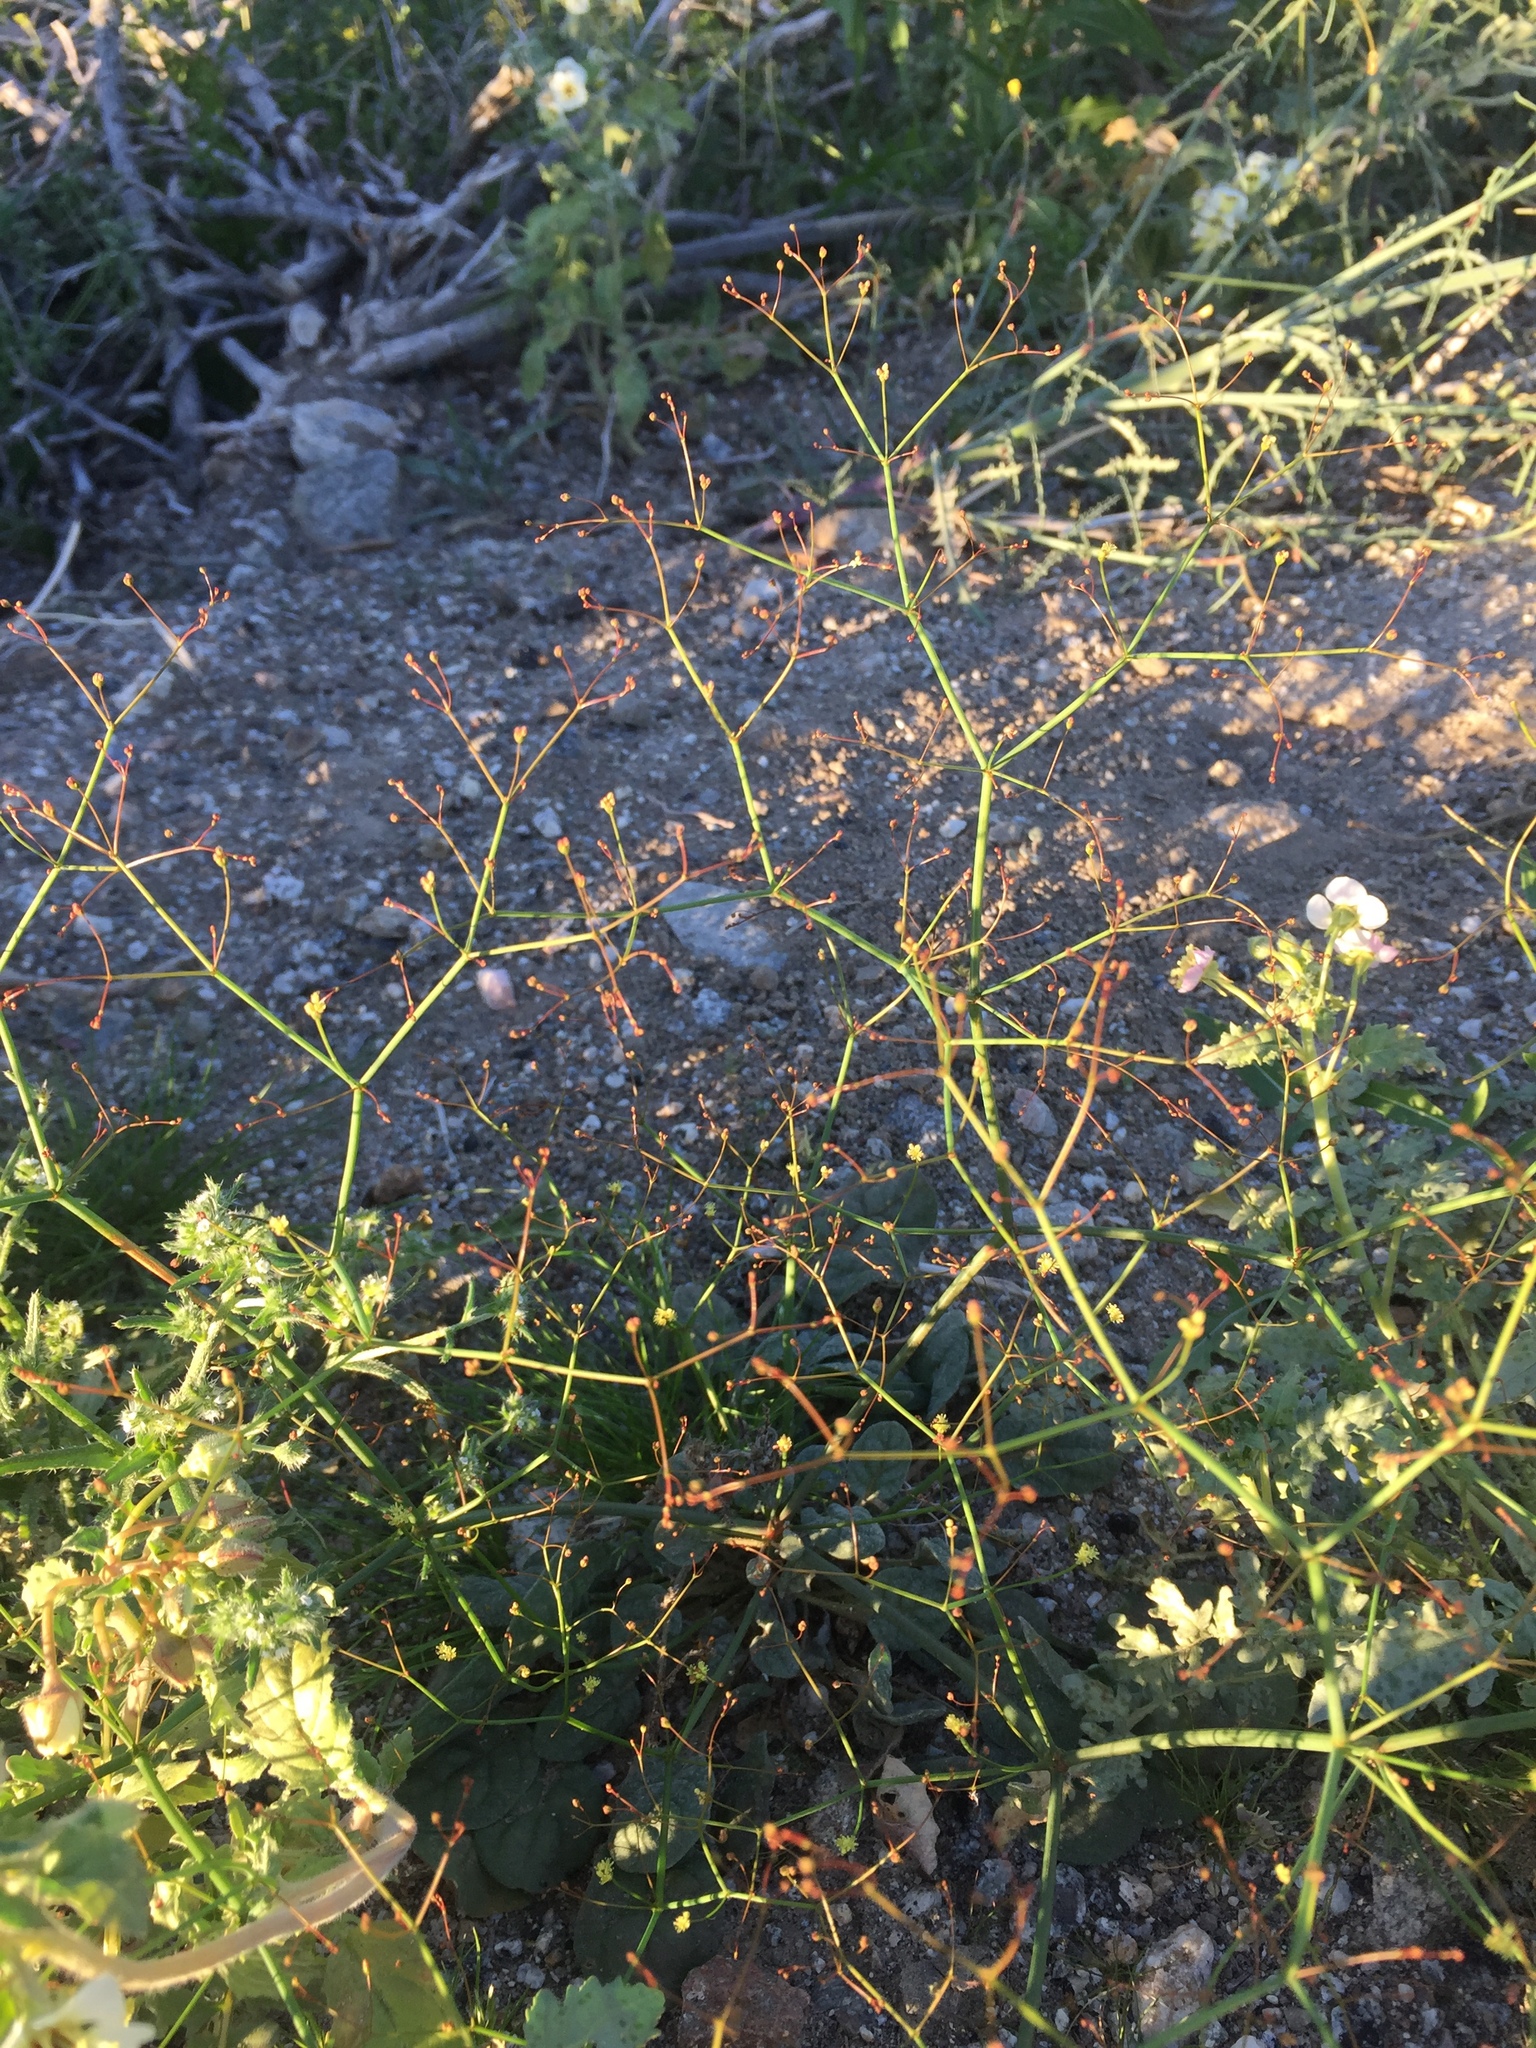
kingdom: Plantae
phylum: Tracheophyta
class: Magnoliopsida
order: Caryophyllales
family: Polygonaceae
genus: Eriogonum
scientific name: Eriogonum thomasii
